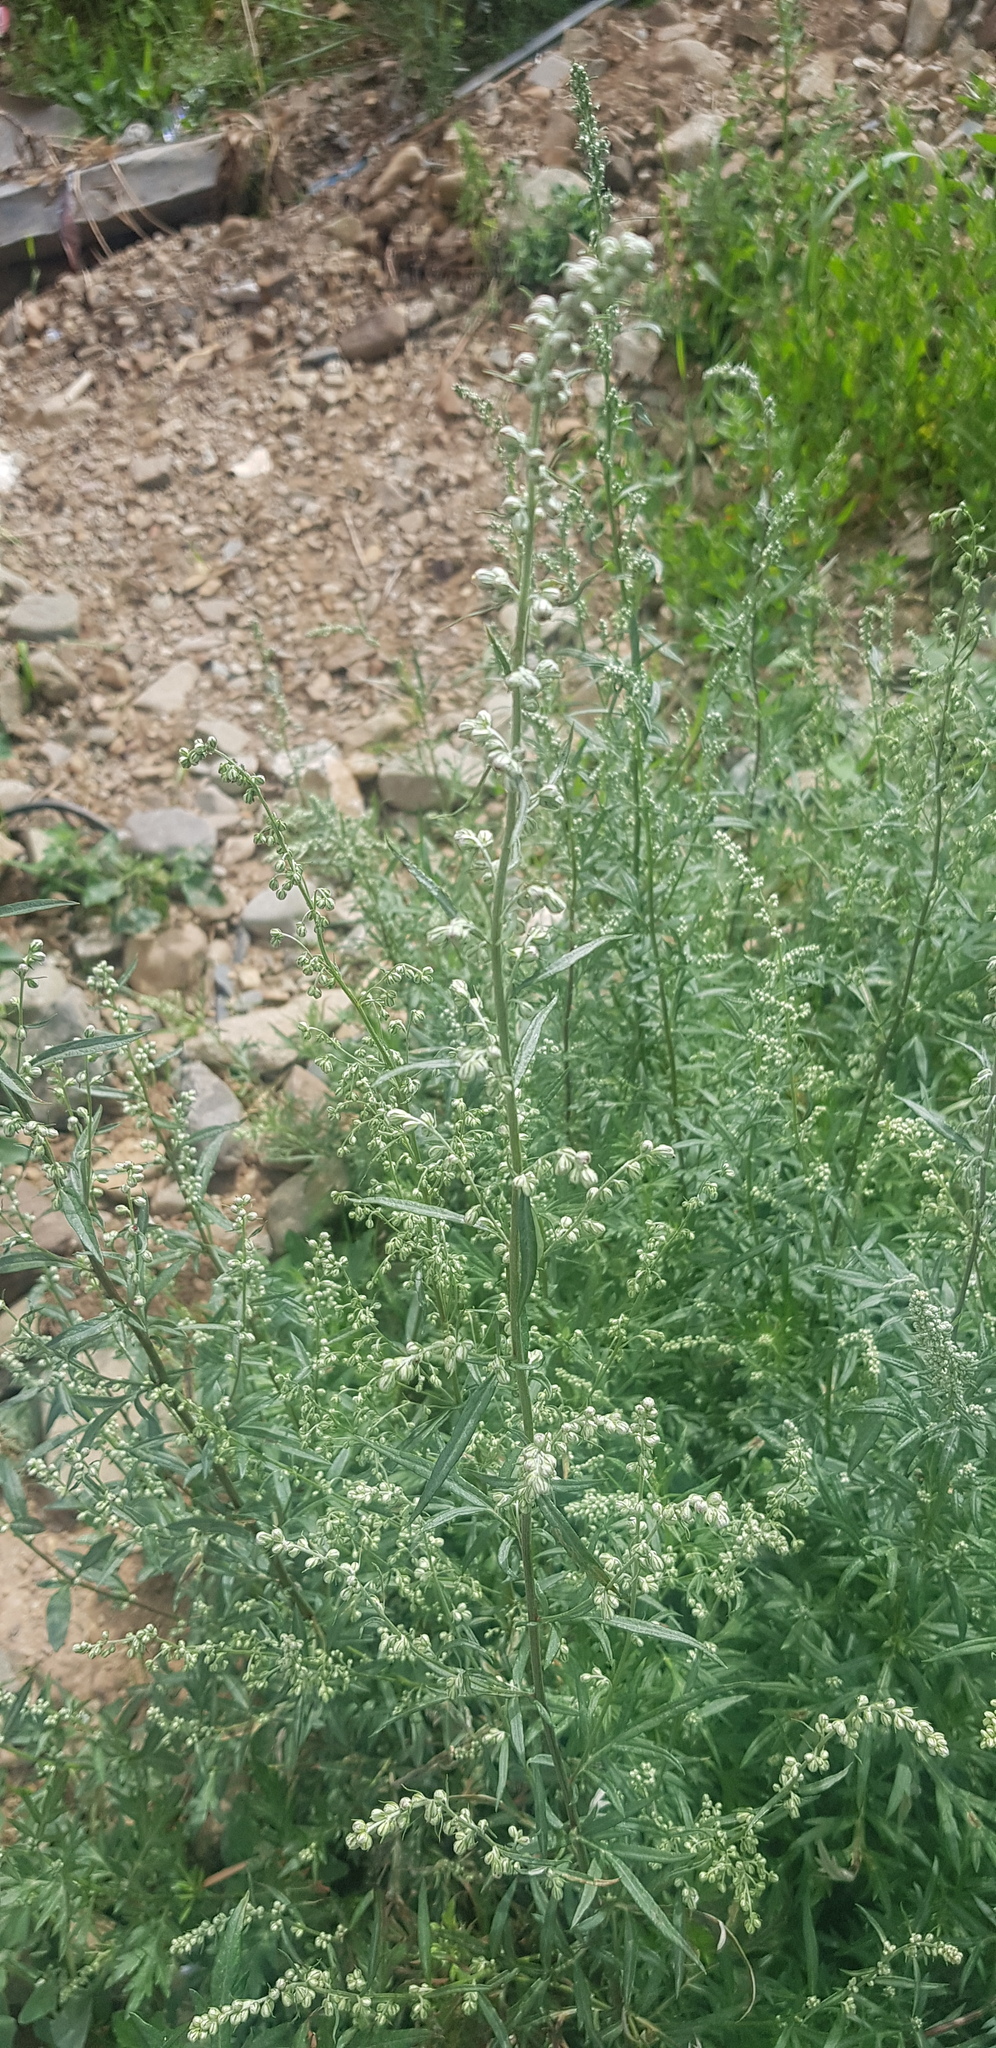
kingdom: Plantae
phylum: Tracheophyta
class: Magnoliopsida
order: Asterales
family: Asteraceae
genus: Artemisia
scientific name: Artemisia sieversiana
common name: Sieversian wormwood
